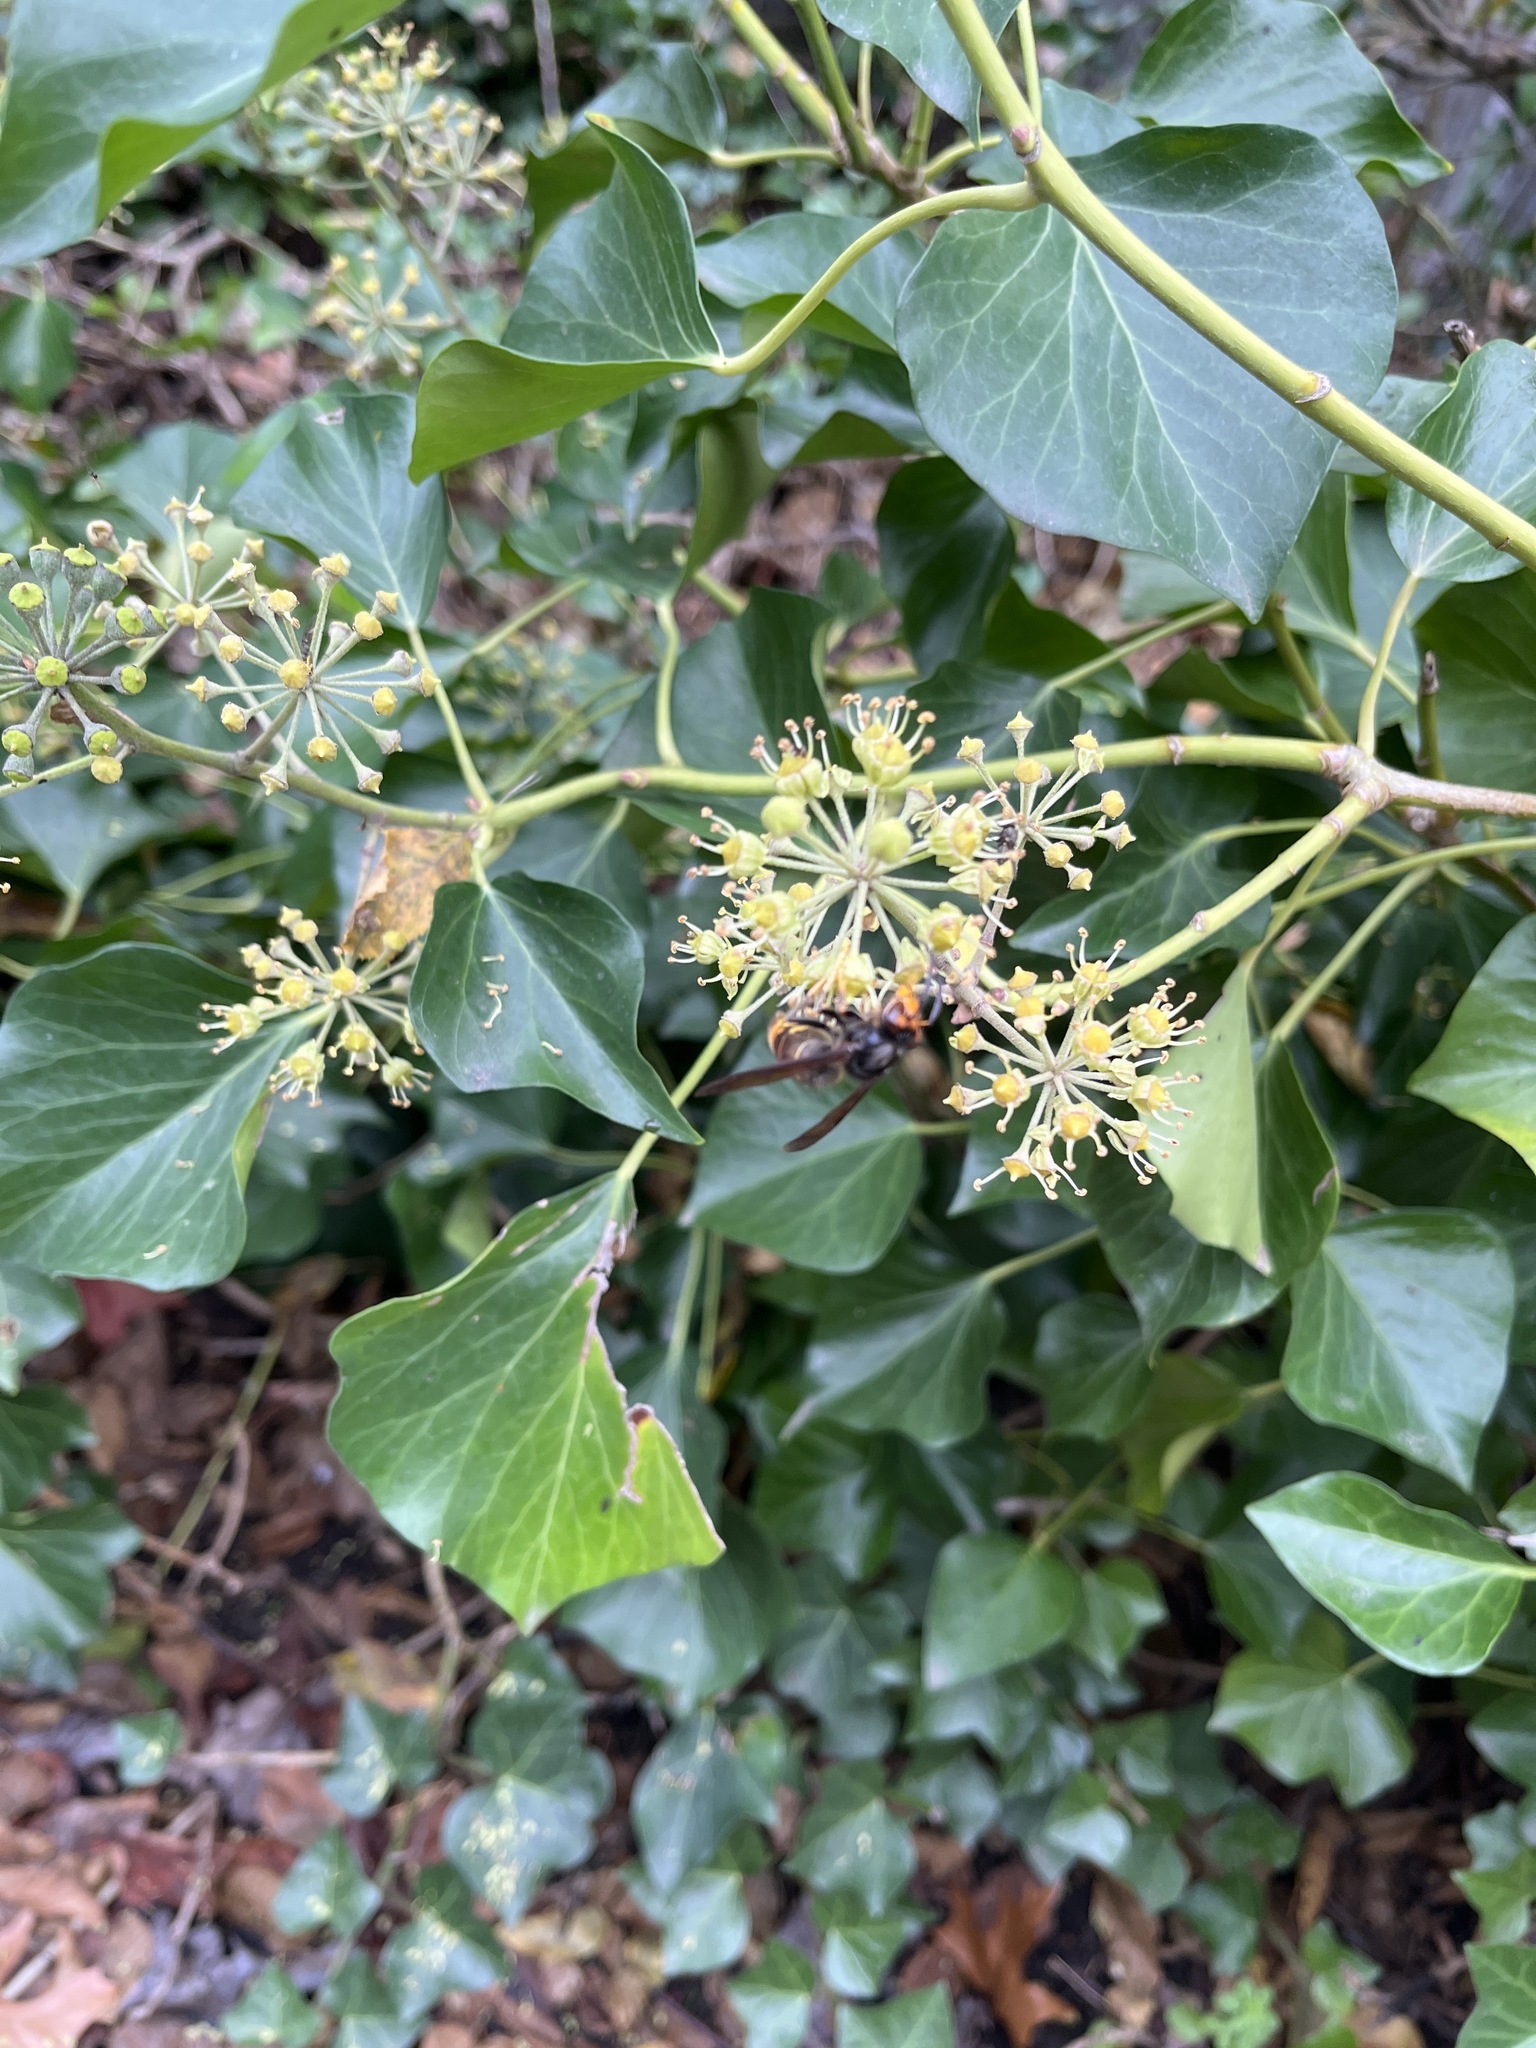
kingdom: Animalia
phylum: Arthropoda
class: Insecta
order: Hymenoptera
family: Vespidae
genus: Vespa
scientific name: Vespa velutina
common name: Asian hornet
